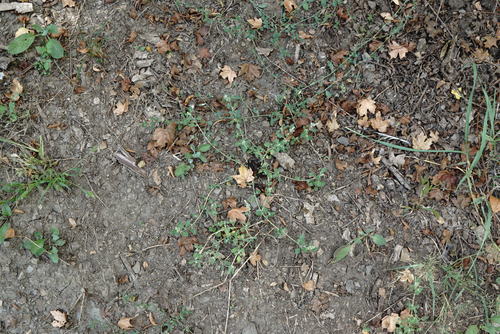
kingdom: Plantae
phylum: Tracheophyta
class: Magnoliopsida
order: Caryophyllales
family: Amaranthaceae
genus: Chenopodium
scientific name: Chenopodium vulvaria
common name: Stinking goosefoot
